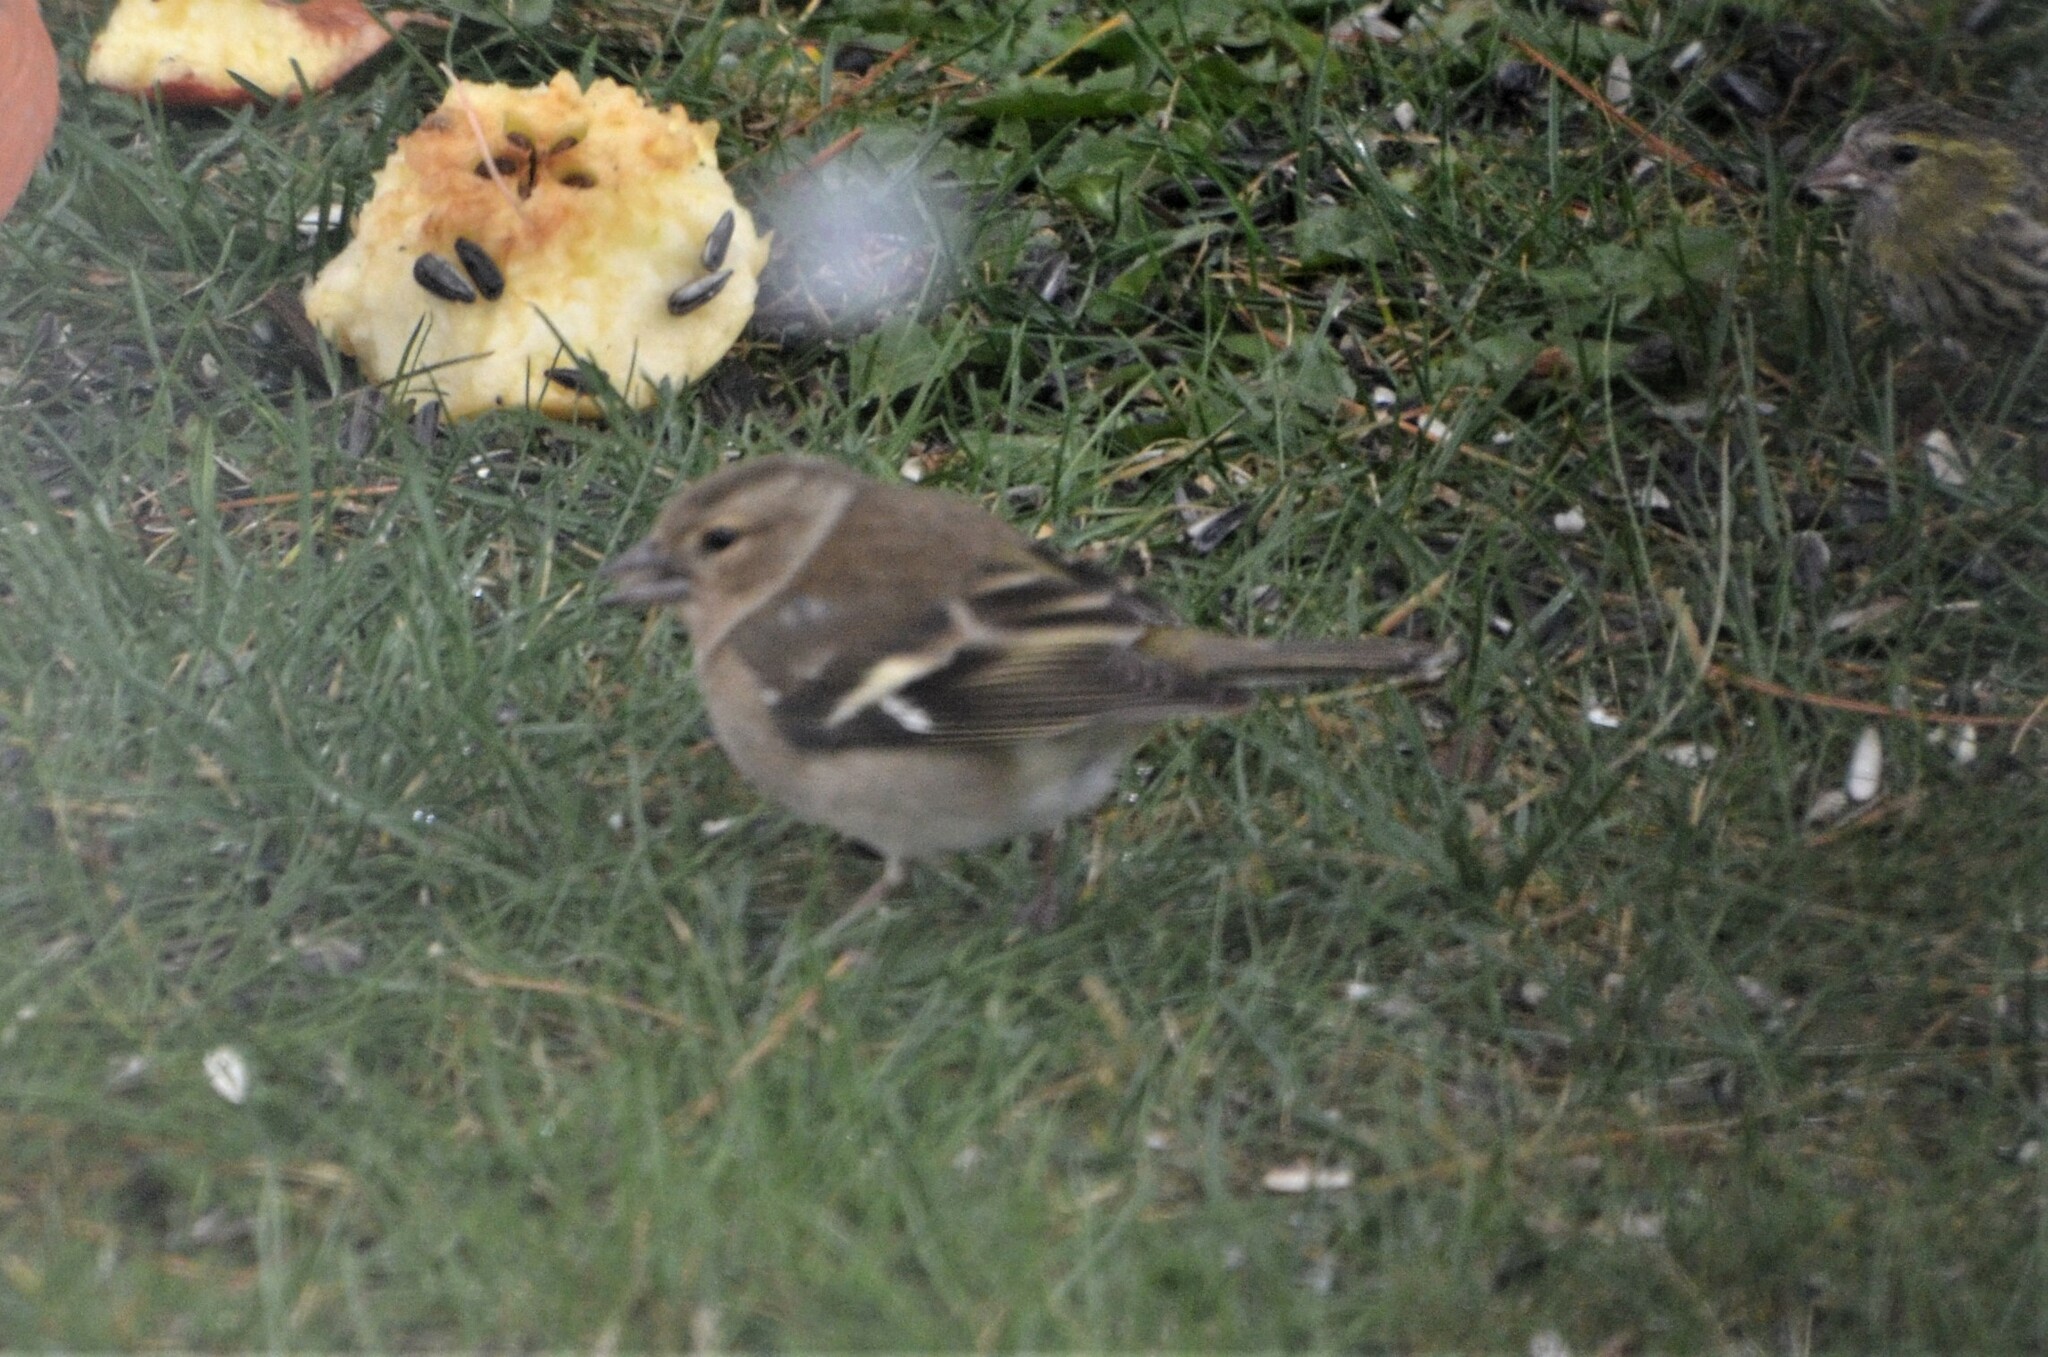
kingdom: Animalia
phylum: Chordata
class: Aves
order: Passeriformes
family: Fringillidae
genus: Fringilla
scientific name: Fringilla coelebs
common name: Common chaffinch
